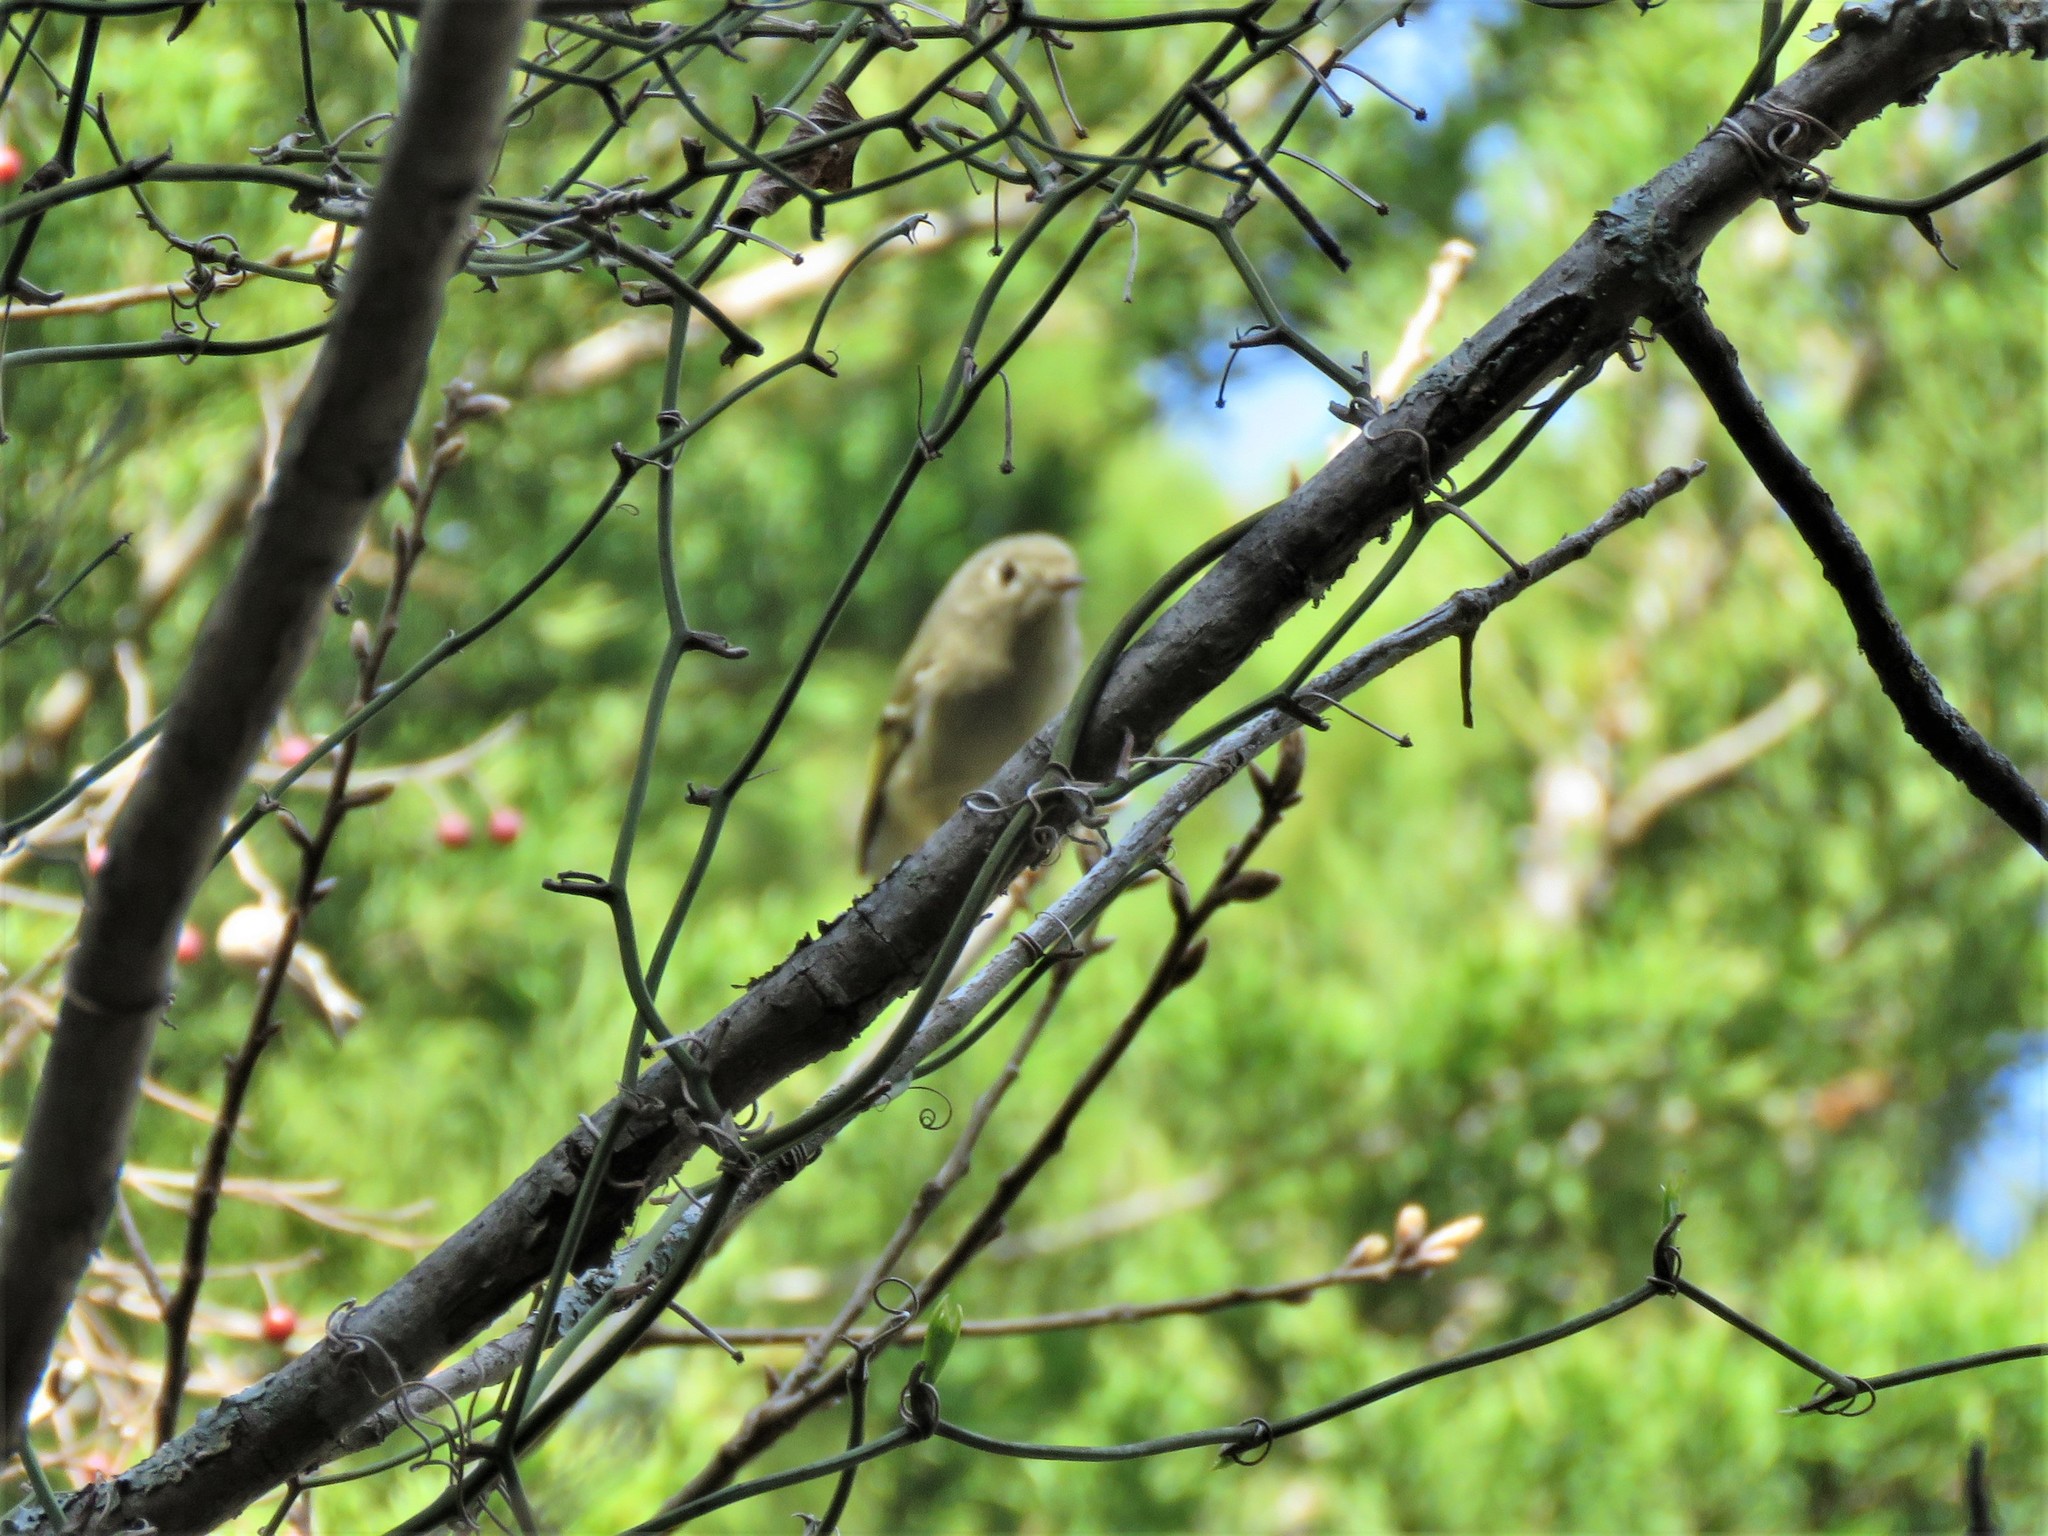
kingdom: Animalia
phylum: Chordata
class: Aves
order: Passeriformes
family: Regulidae
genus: Regulus
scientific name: Regulus calendula
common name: Ruby-crowned kinglet
